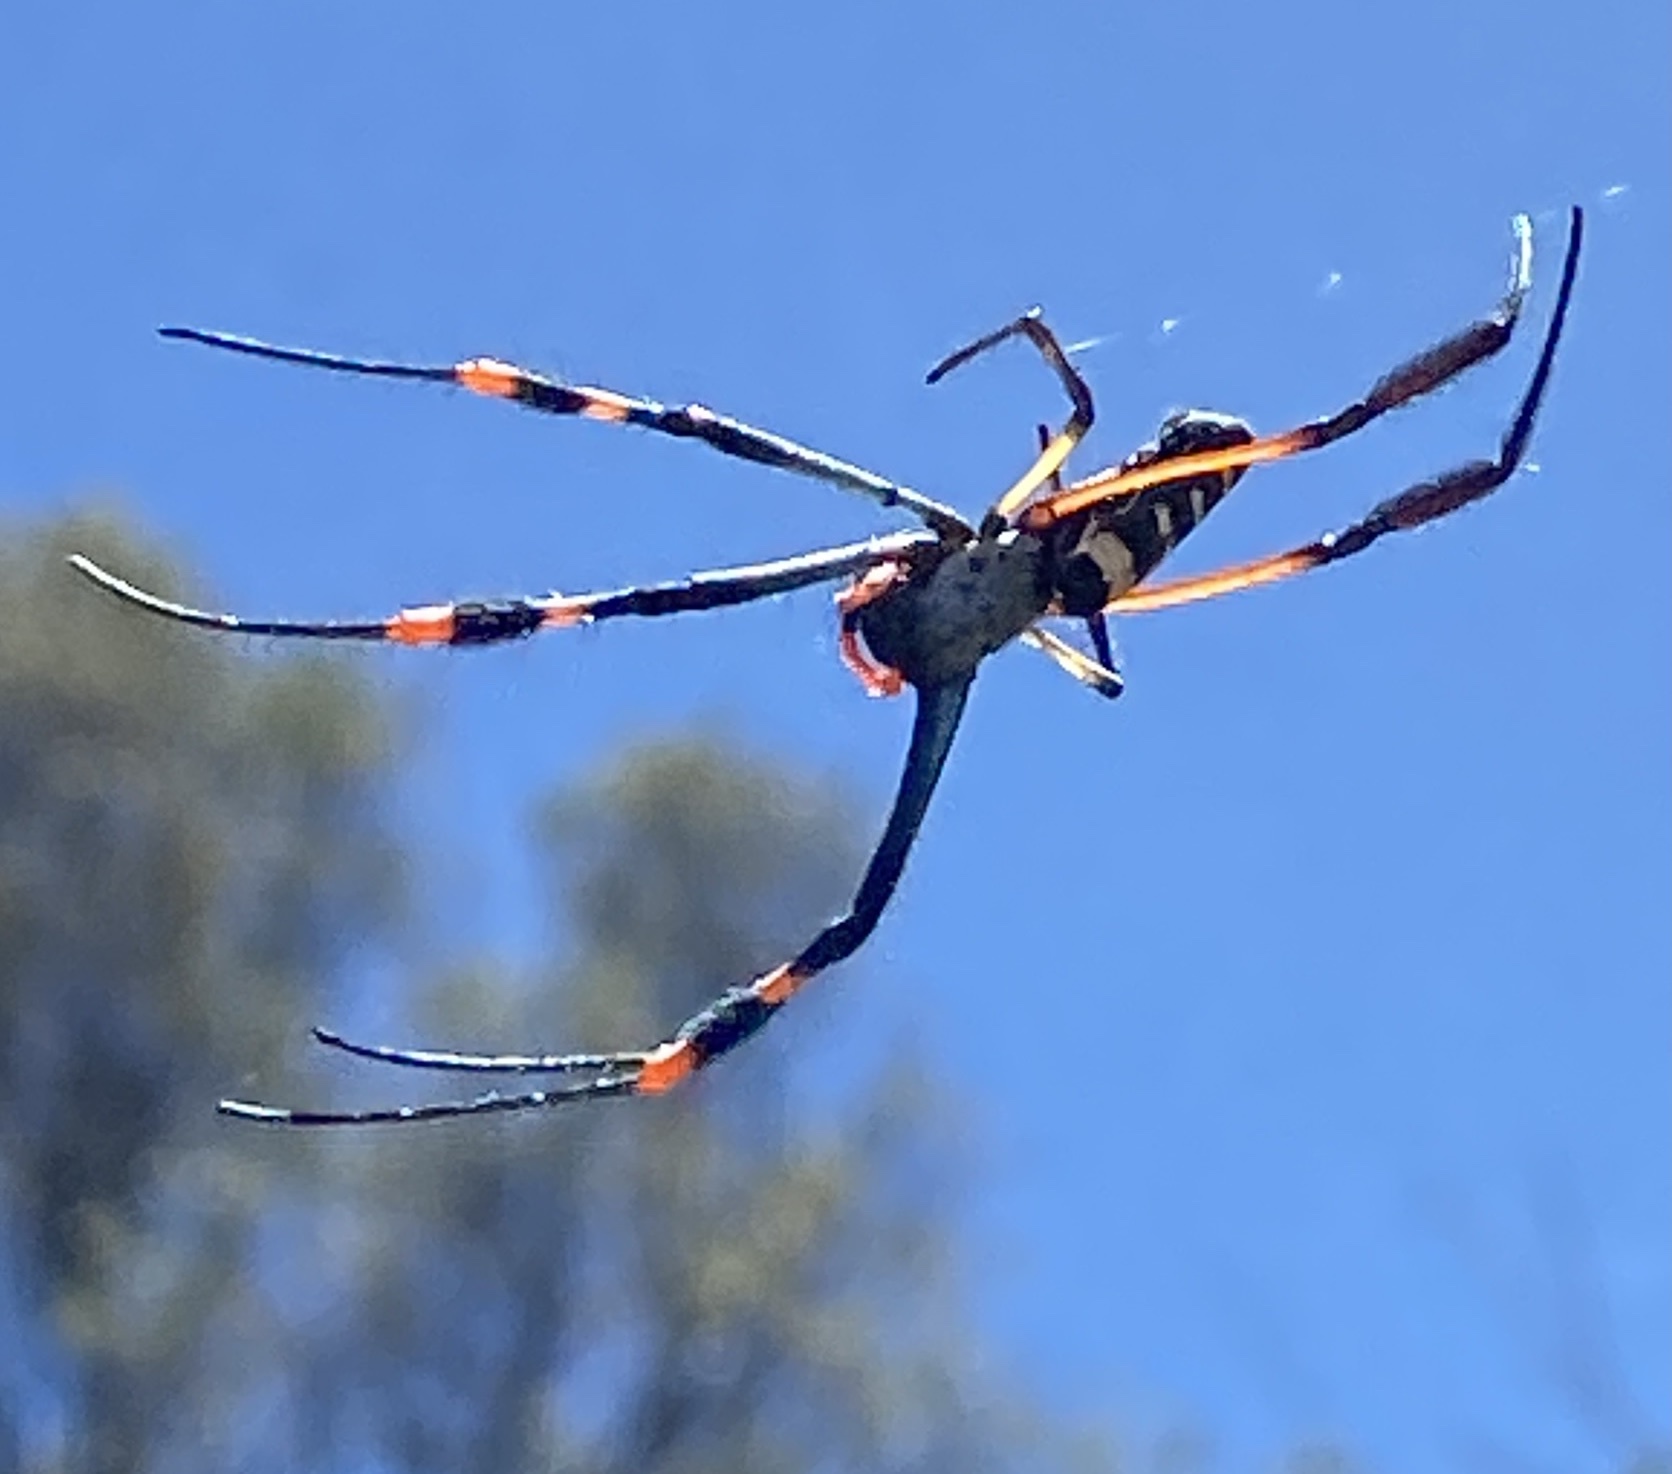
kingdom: Animalia
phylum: Arthropoda
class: Arachnida
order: Araneae
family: Araneidae
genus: Trichonephila
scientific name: Trichonephila senegalensis
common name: Banded golden orb weaver
